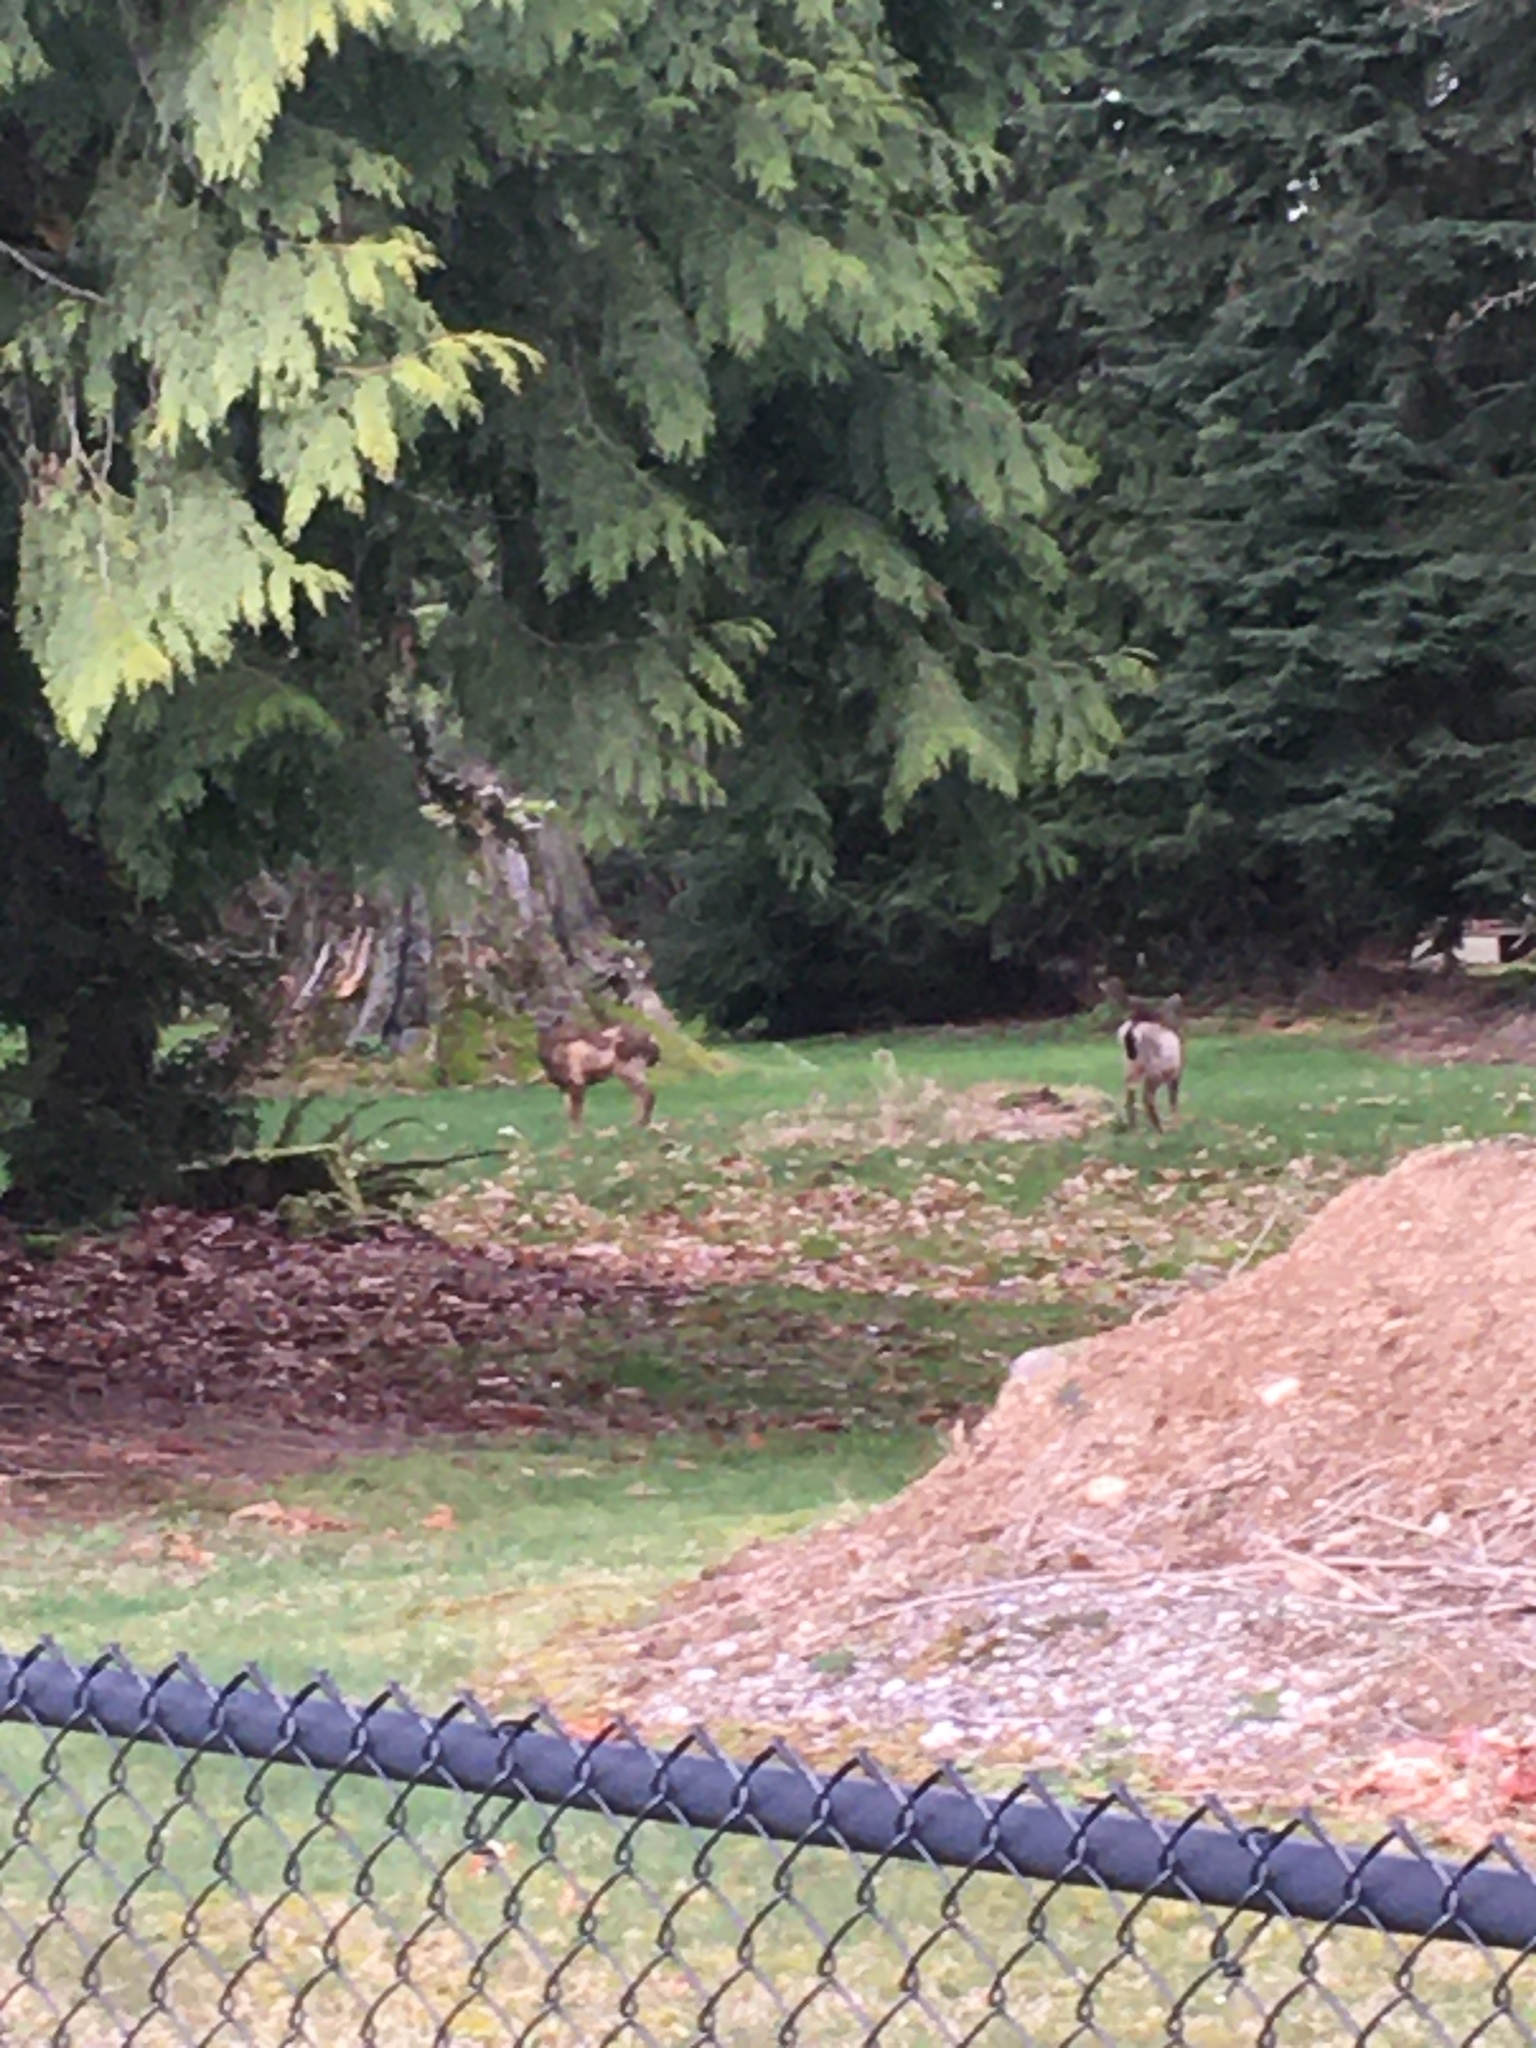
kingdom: Animalia
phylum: Chordata
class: Mammalia
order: Artiodactyla
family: Cervidae
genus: Odocoileus
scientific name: Odocoileus hemionus
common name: Mule deer
